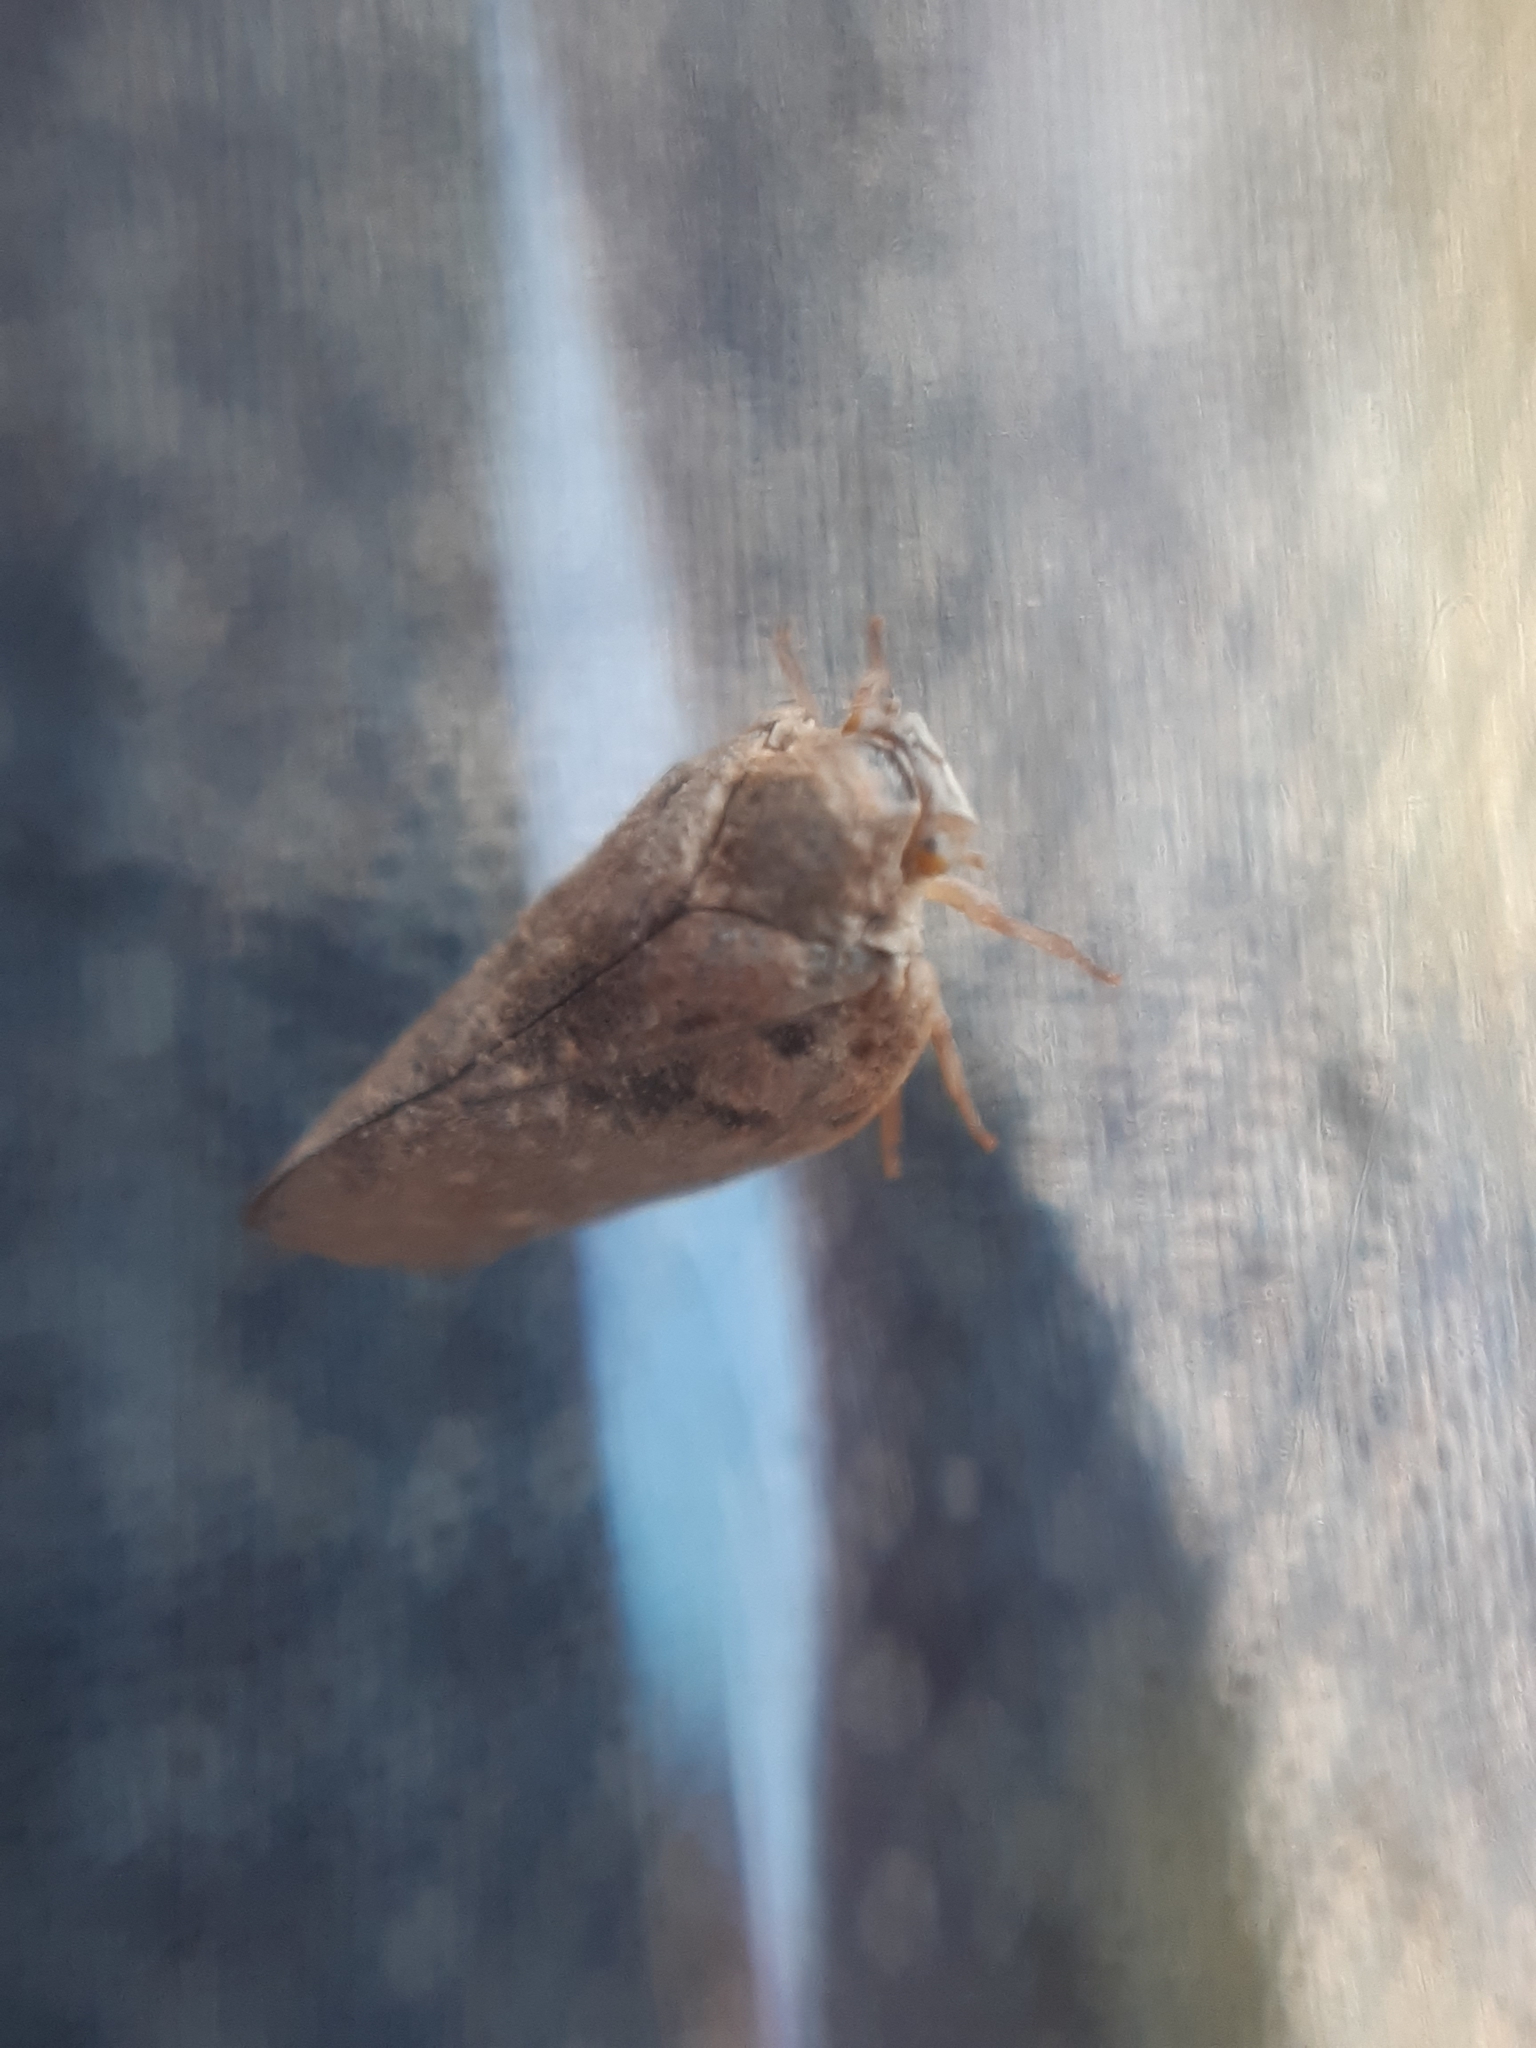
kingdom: Animalia
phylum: Arthropoda
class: Insecta
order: Hemiptera
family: Flatidae
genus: Metcalfa
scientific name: Metcalfa pruinosa
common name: Citrus flatid planthopper
